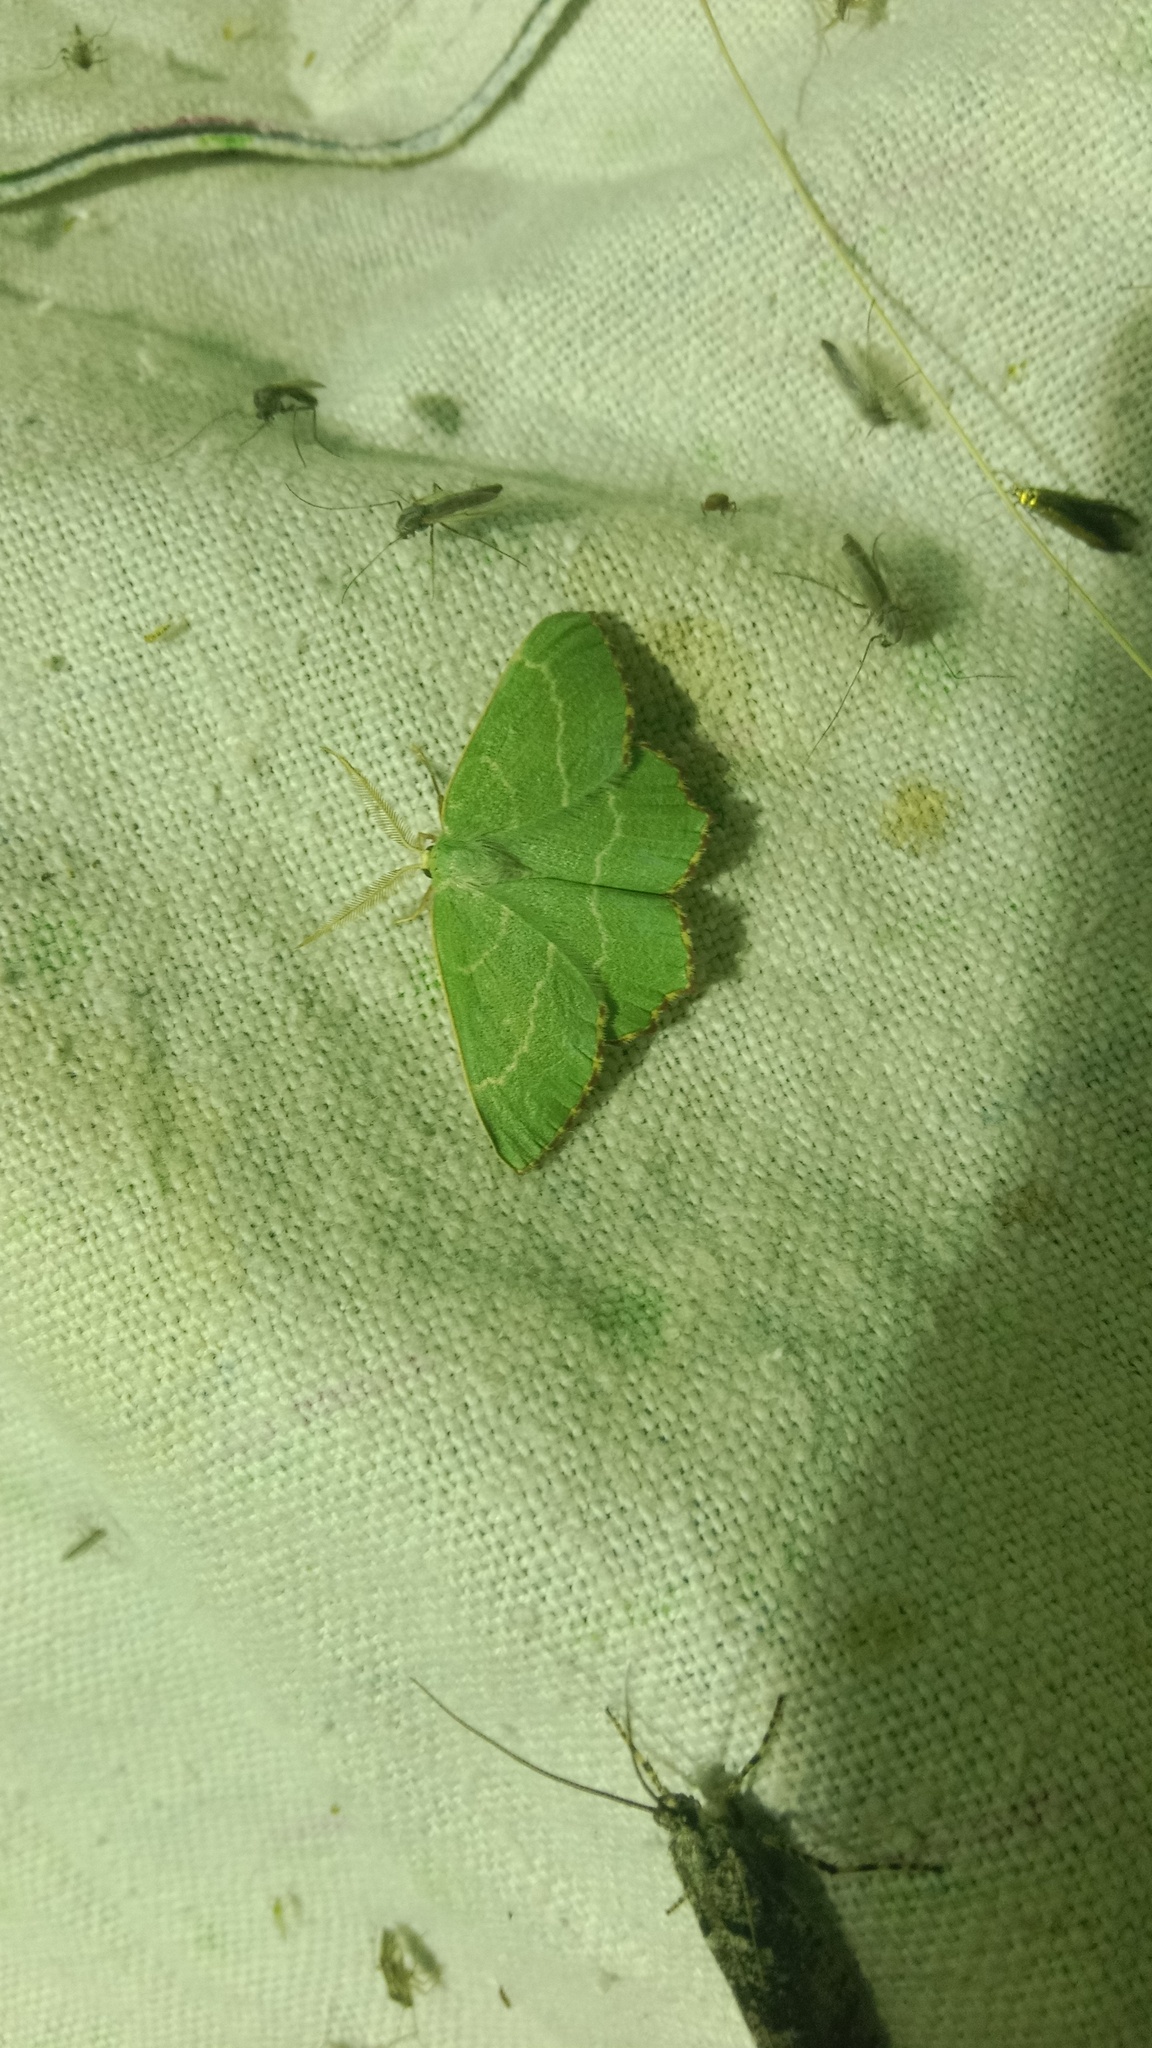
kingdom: Animalia
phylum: Arthropoda
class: Insecta
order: Lepidoptera
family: Geometridae
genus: Thalera
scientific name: Thalera fimbrialis
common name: Sussex emerald
